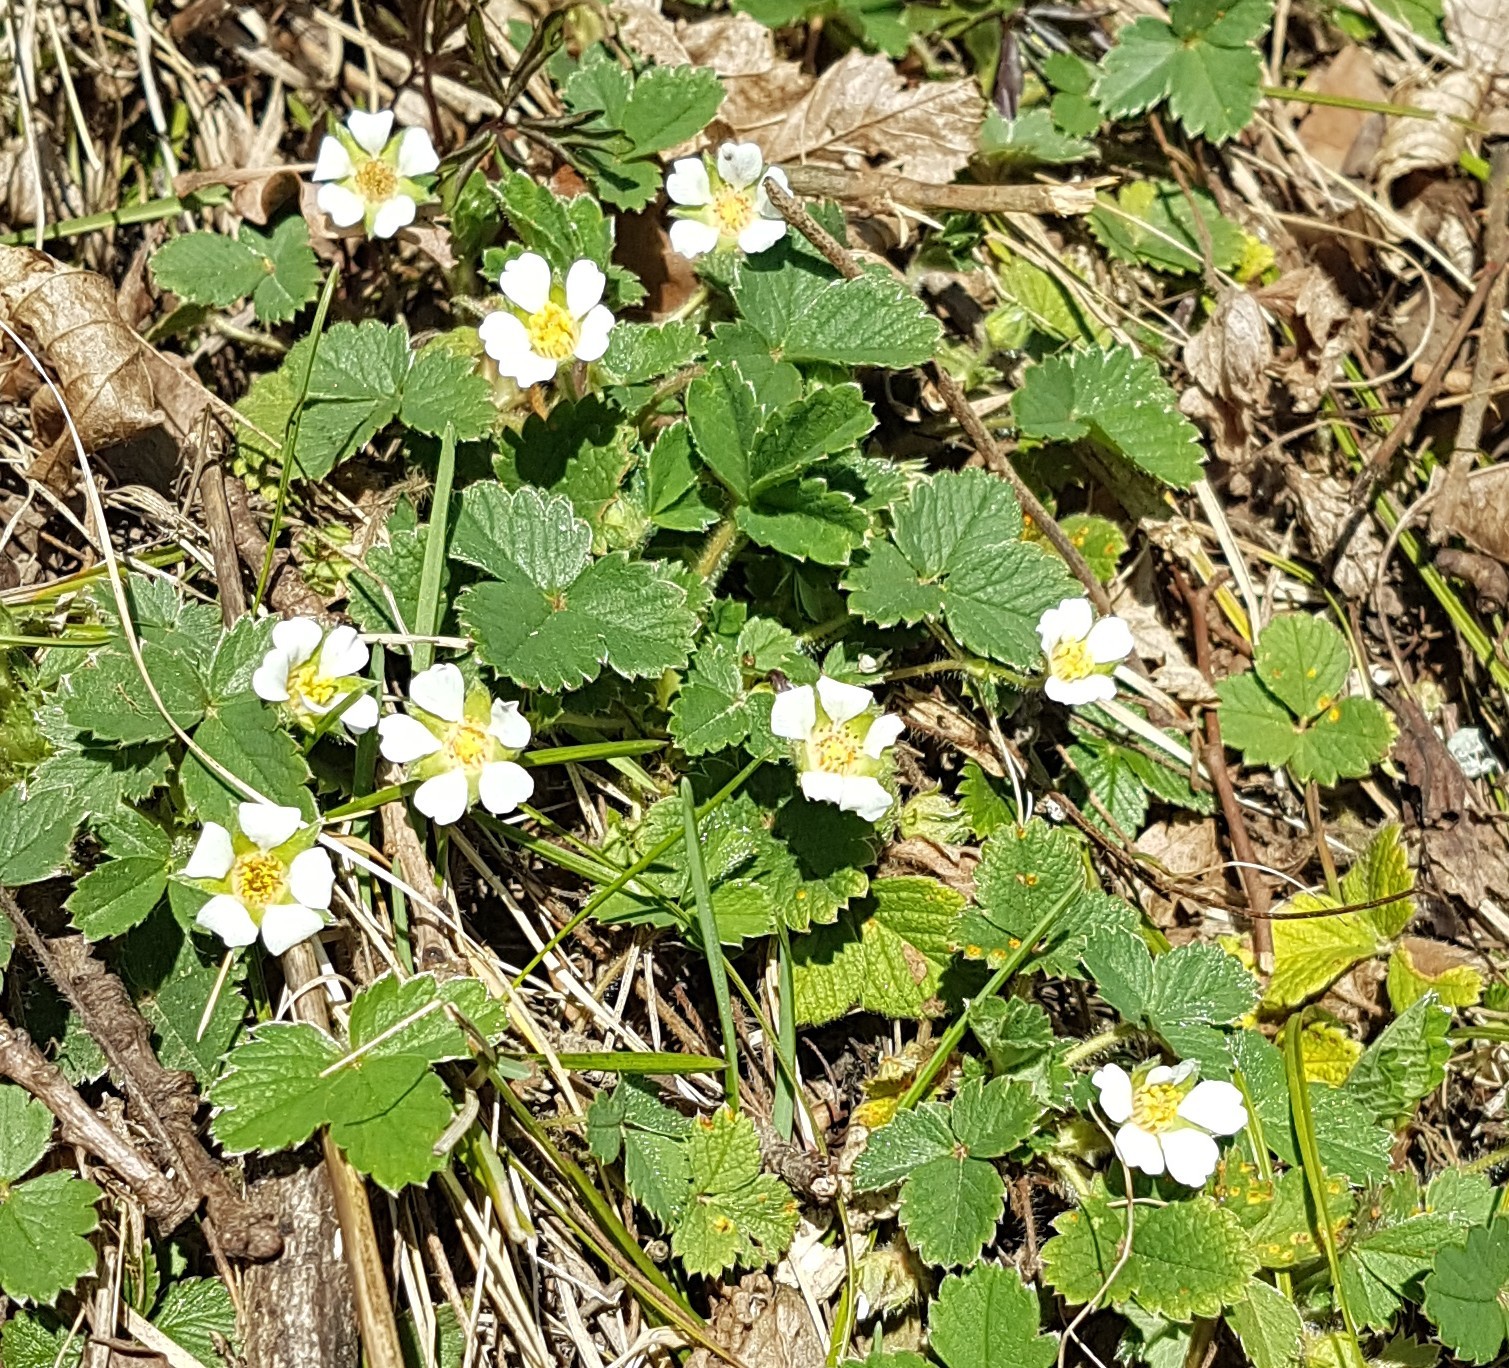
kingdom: Plantae
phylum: Tracheophyta
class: Magnoliopsida
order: Rosales
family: Rosaceae
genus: Potentilla
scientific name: Potentilla sterilis
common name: Barren strawberry
